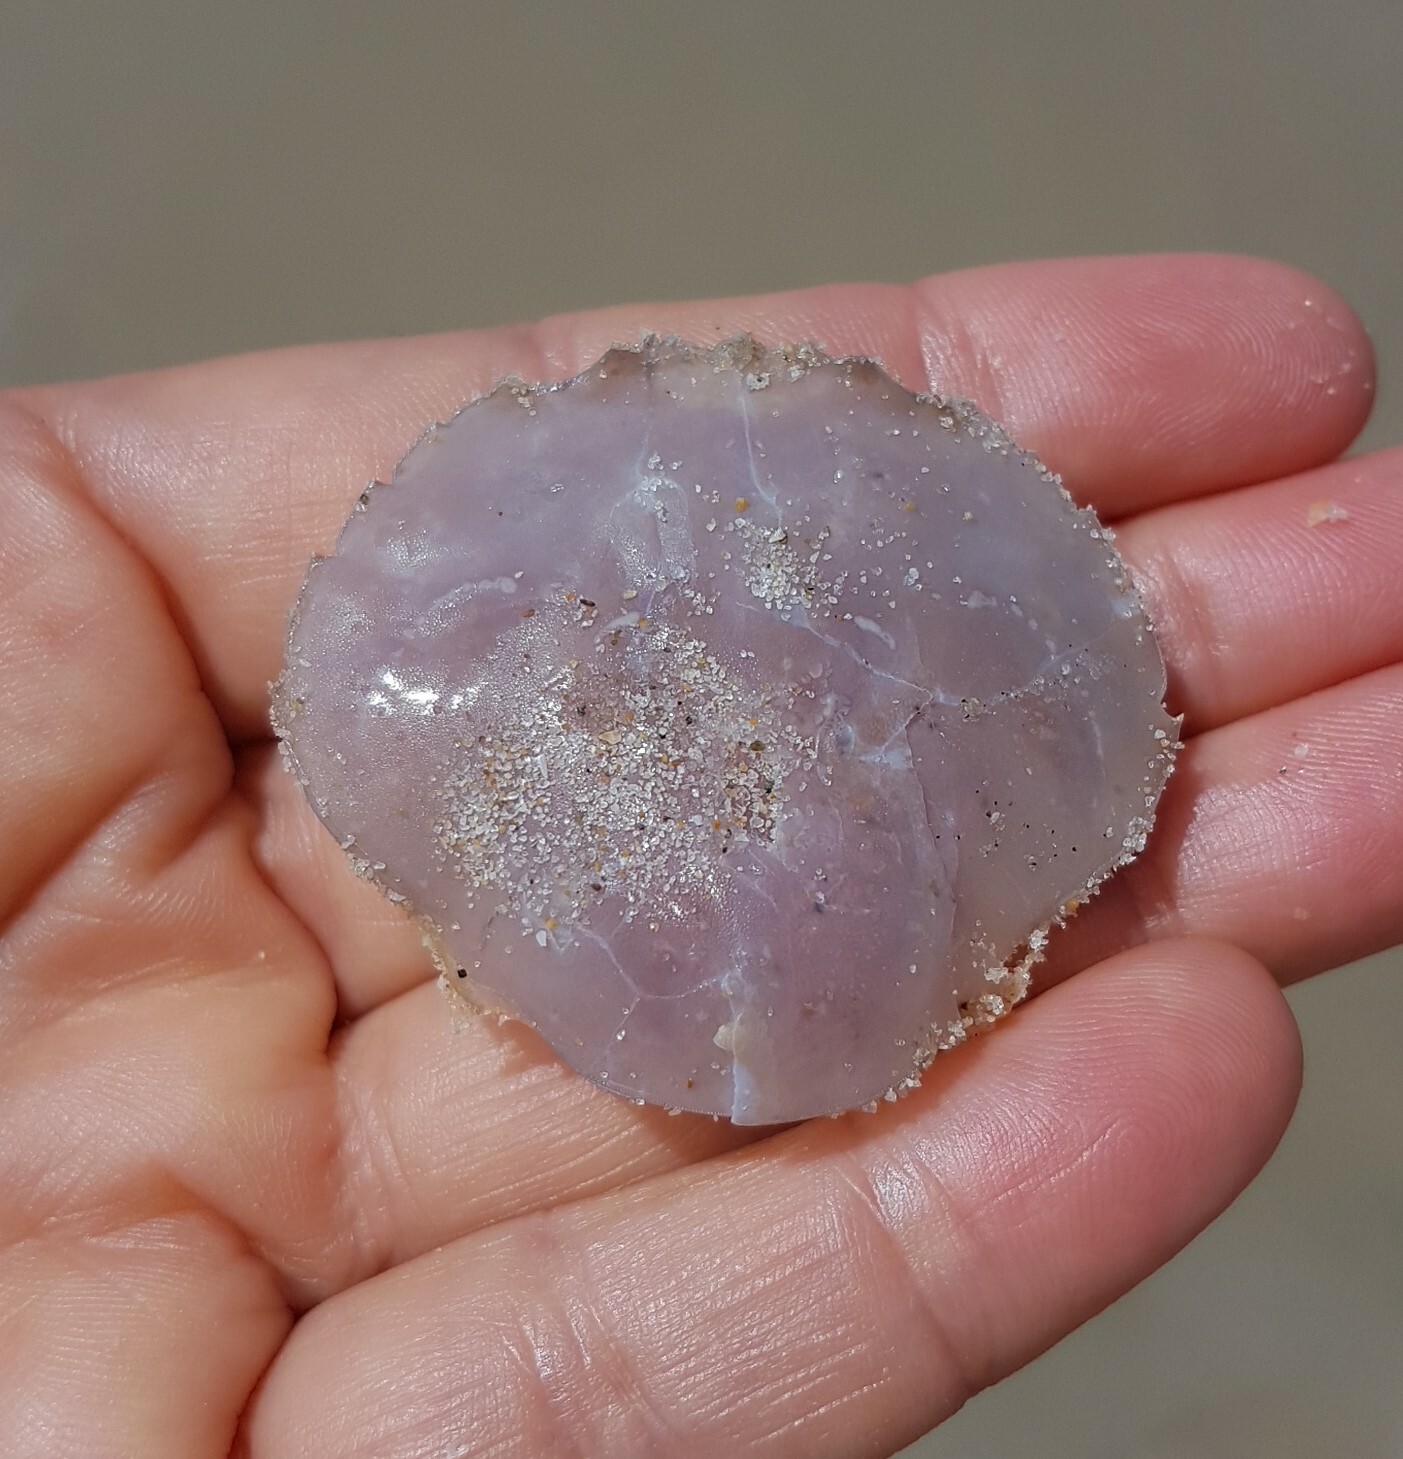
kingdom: Animalia
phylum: Arthropoda
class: Malacostraca
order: Decapoda
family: Polybiidae
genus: Polybius
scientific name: Polybius henslowii
